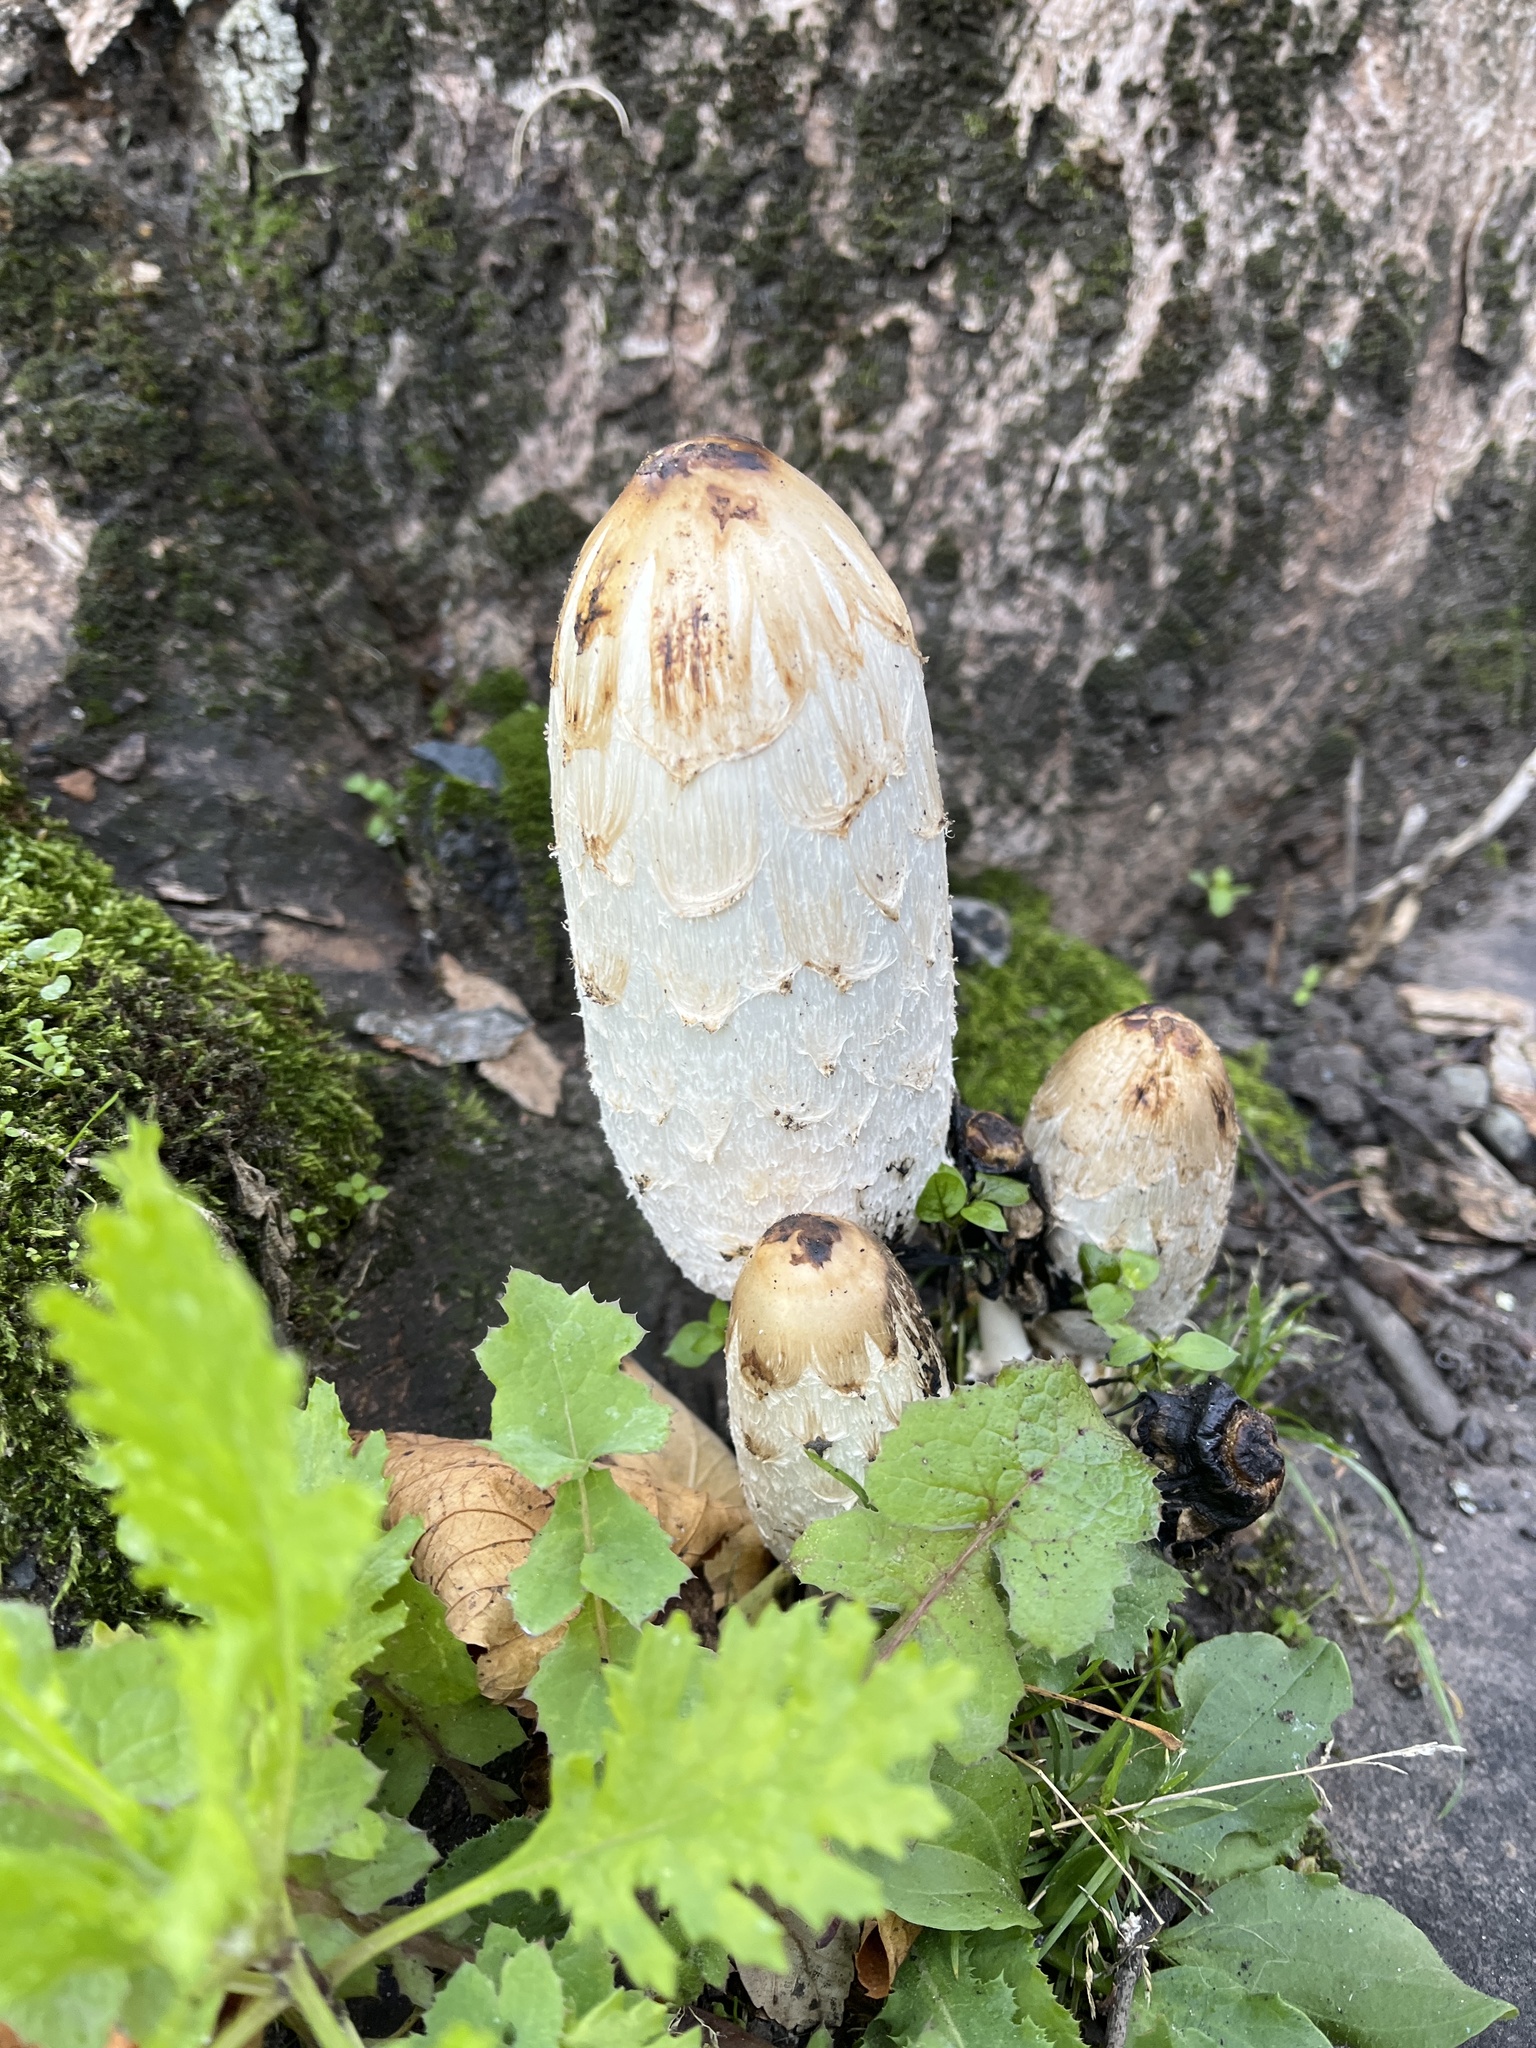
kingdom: Fungi
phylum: Basidiomycota
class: Agaricomycetes
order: Agaricales
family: Agaricaceae
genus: Coprinus
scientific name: Coprinus comatus
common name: Lawyer's wig
